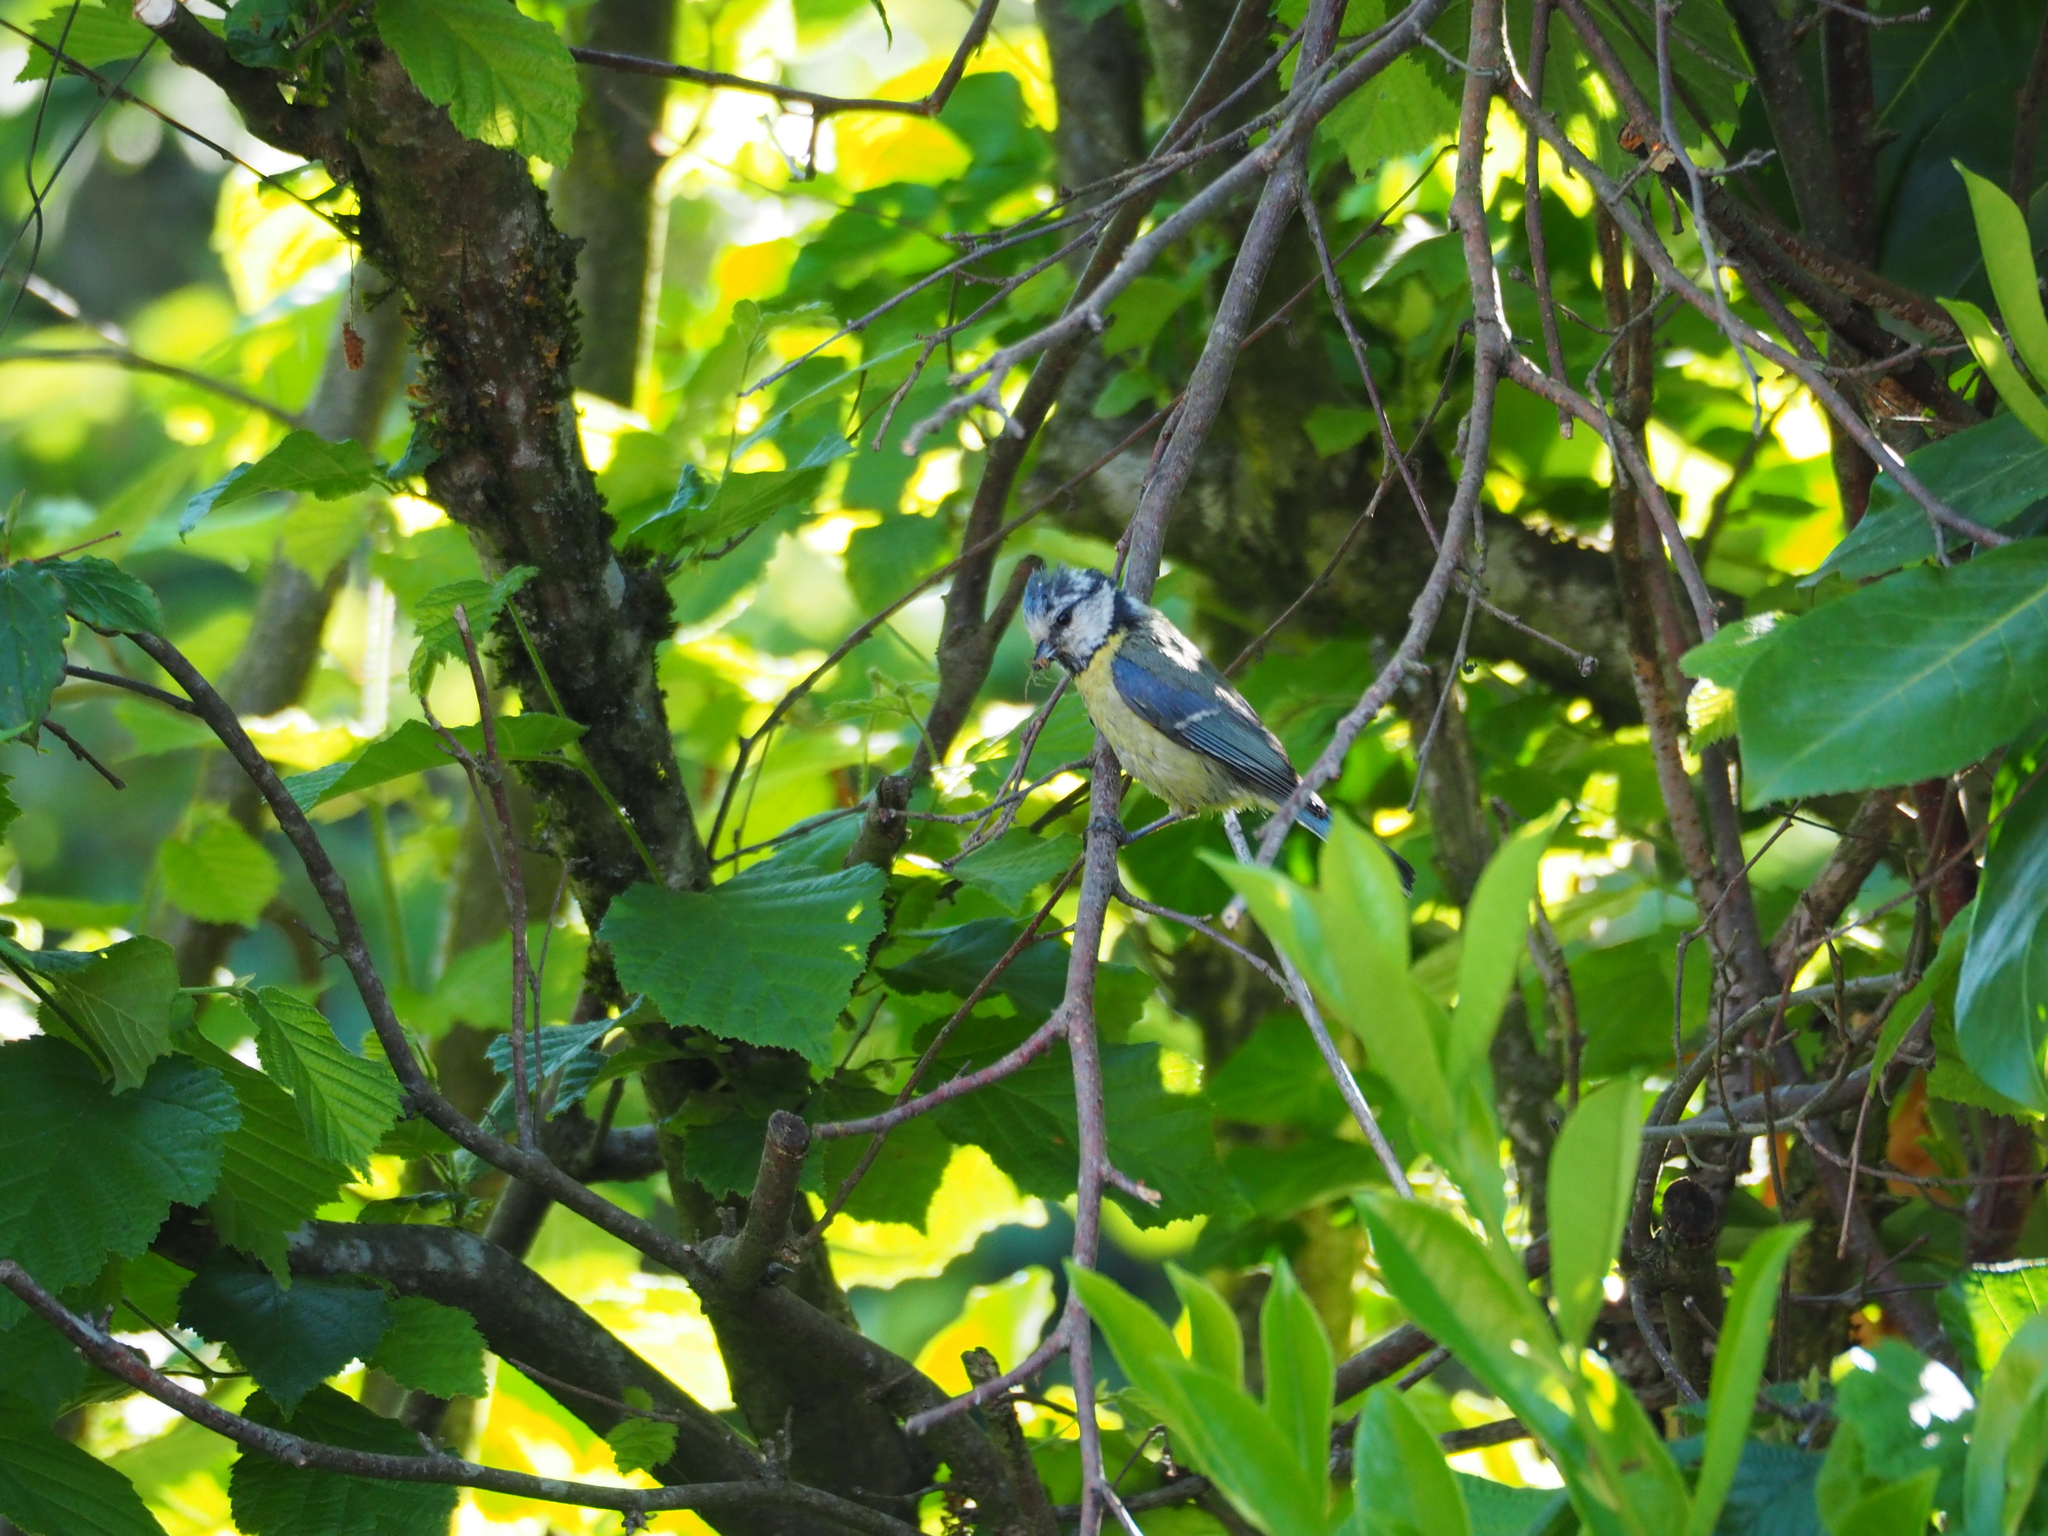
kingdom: Animalia
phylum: Chordata
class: Aves
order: Passeriformes
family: Paridae
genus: Cyanistes
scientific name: Cyanistes caeruleus
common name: Eurasian blue tit
